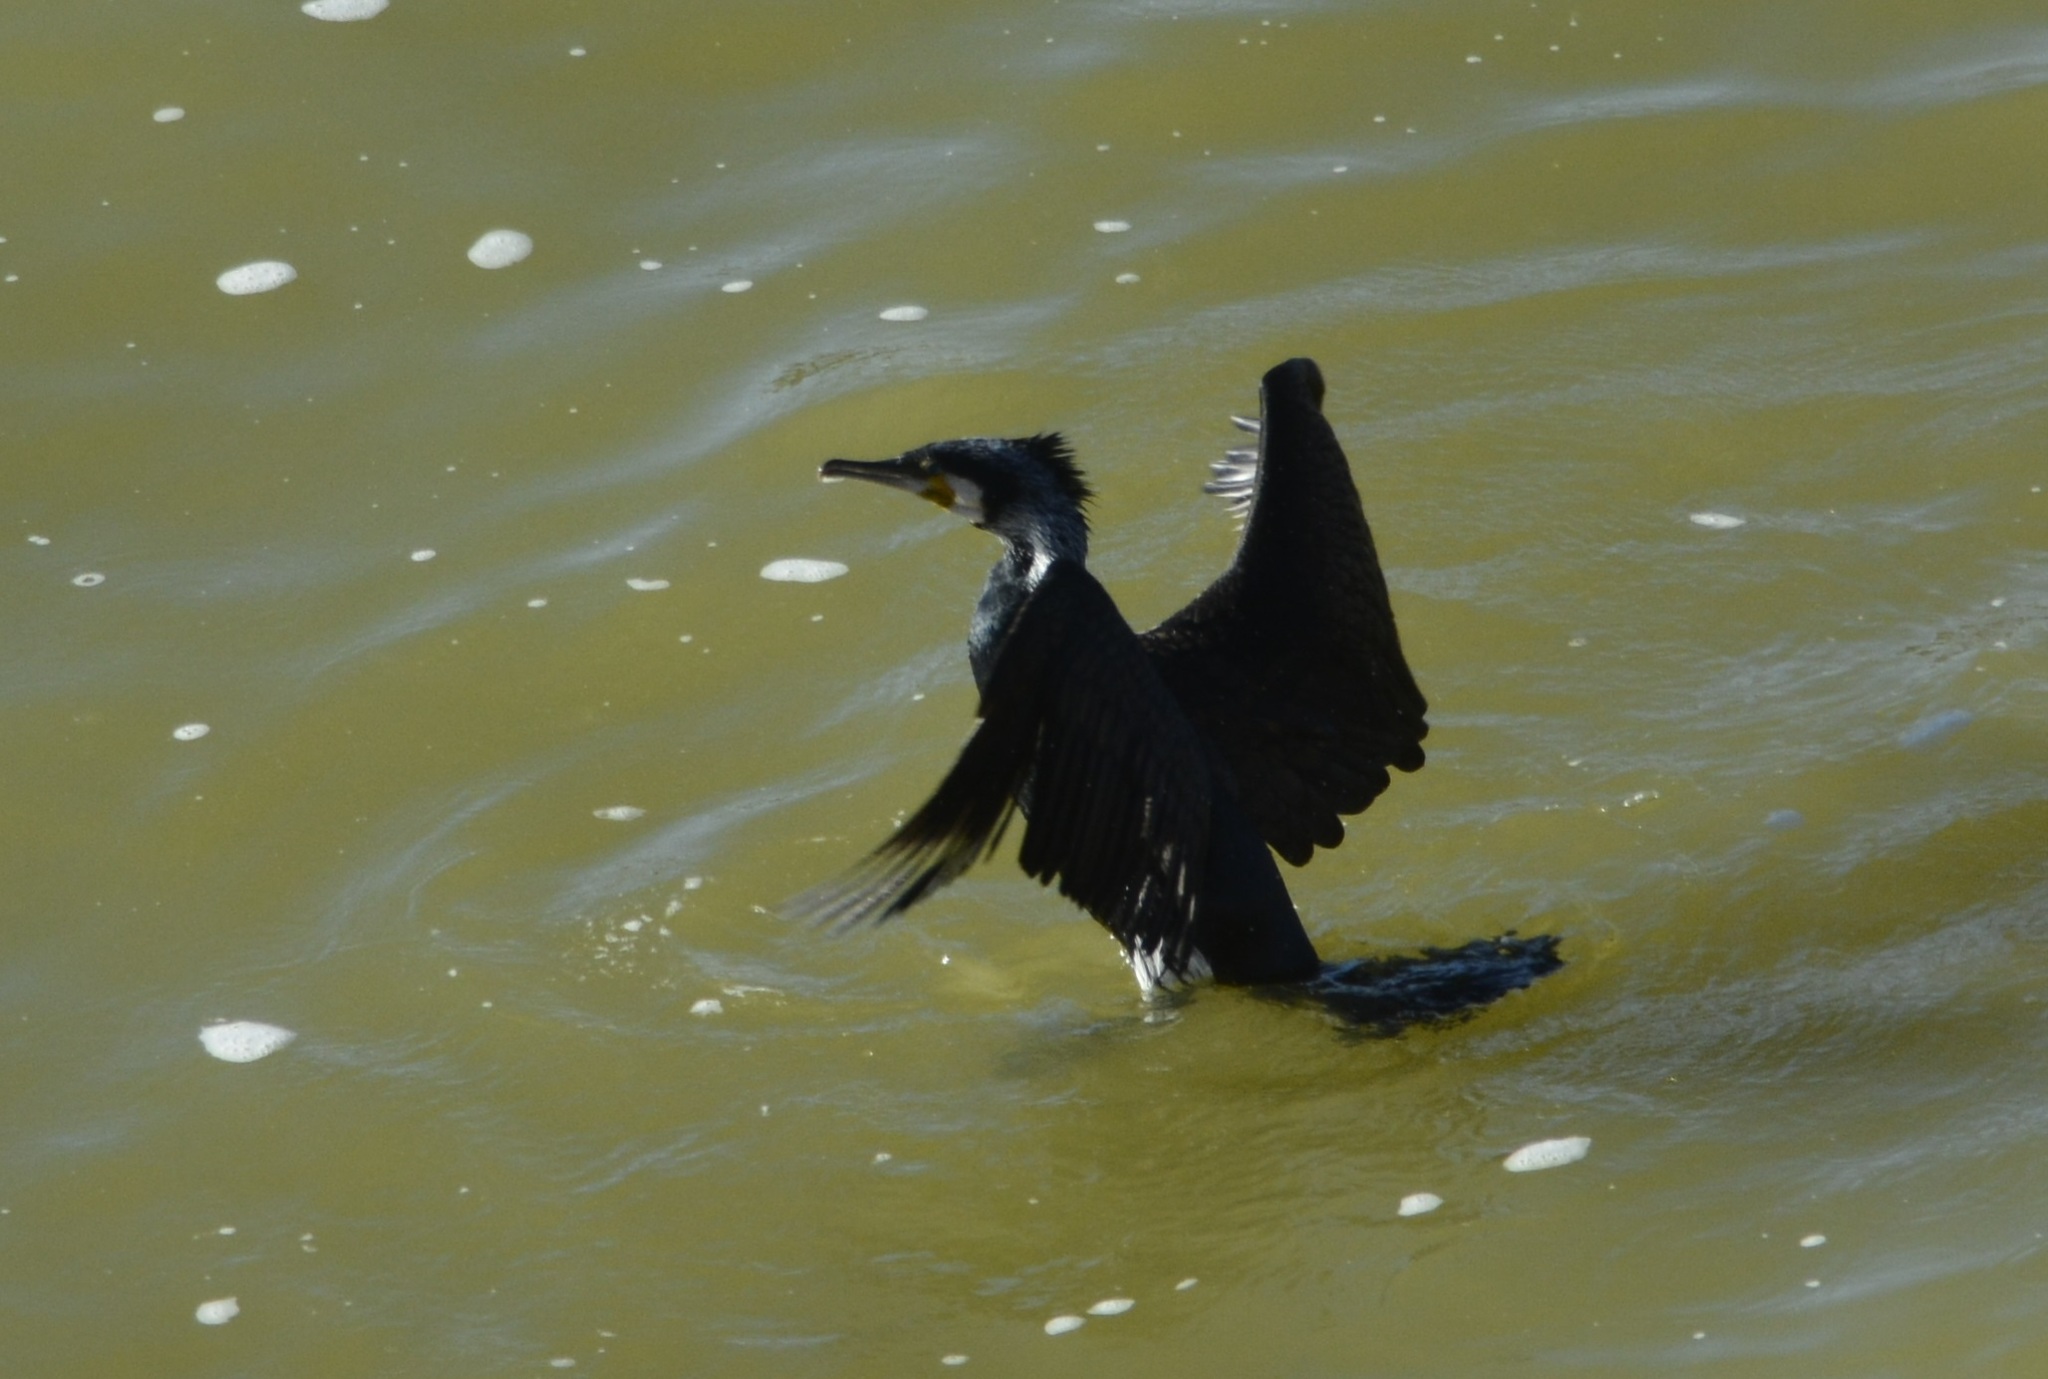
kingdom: Animalia
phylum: Chordata
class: Aves
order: Suliformes
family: Phalacrocoracidae
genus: Phalacrocorax
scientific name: Phalacrocorax carbo
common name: Great cormorant
